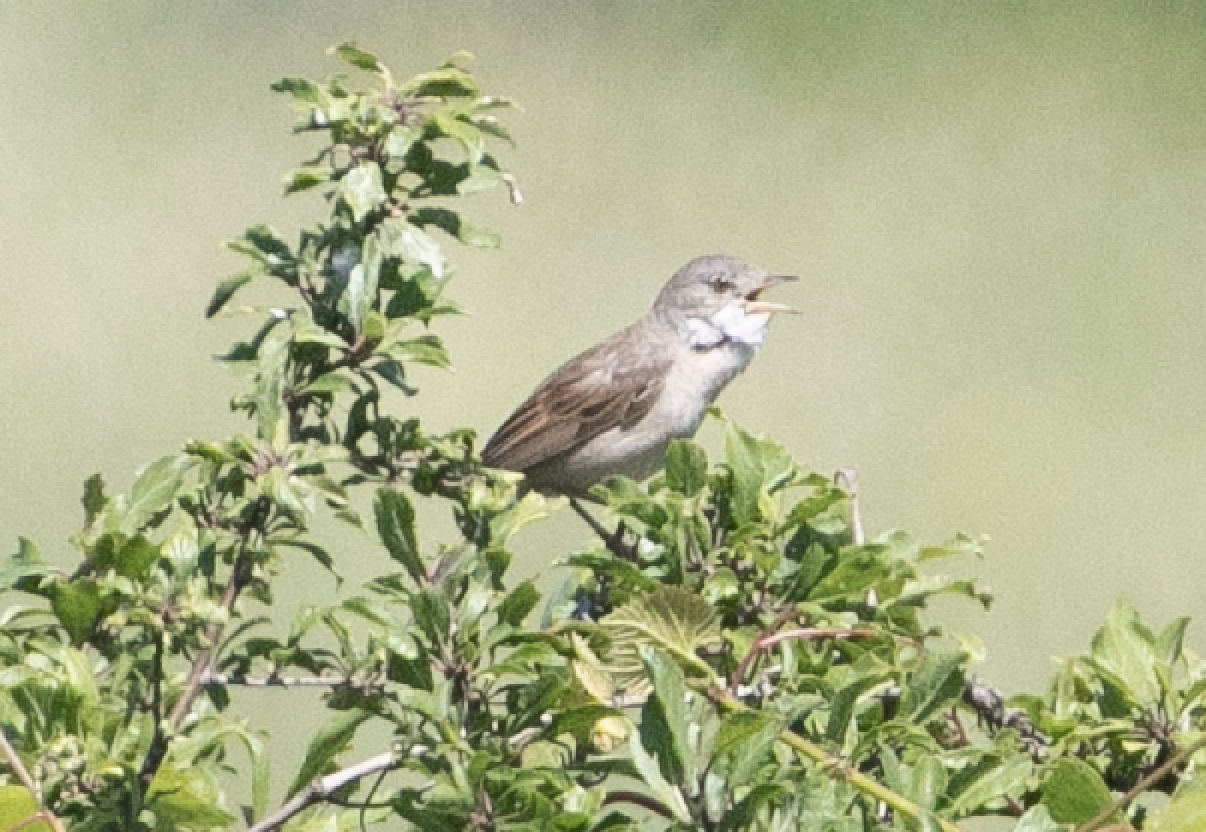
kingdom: Animalia
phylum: Chordata
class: Aves
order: Passeriformes
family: Sylviidae
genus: Sylvia
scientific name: Sylvia communis
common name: Common whitethroat
